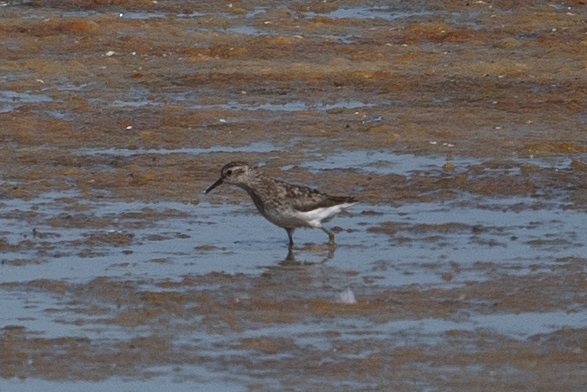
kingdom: Animalia
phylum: Chordata
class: Aves
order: Charadriiformes
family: Scolopacidae
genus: Calidris
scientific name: Calidris minutilla
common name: Least sandpiper
